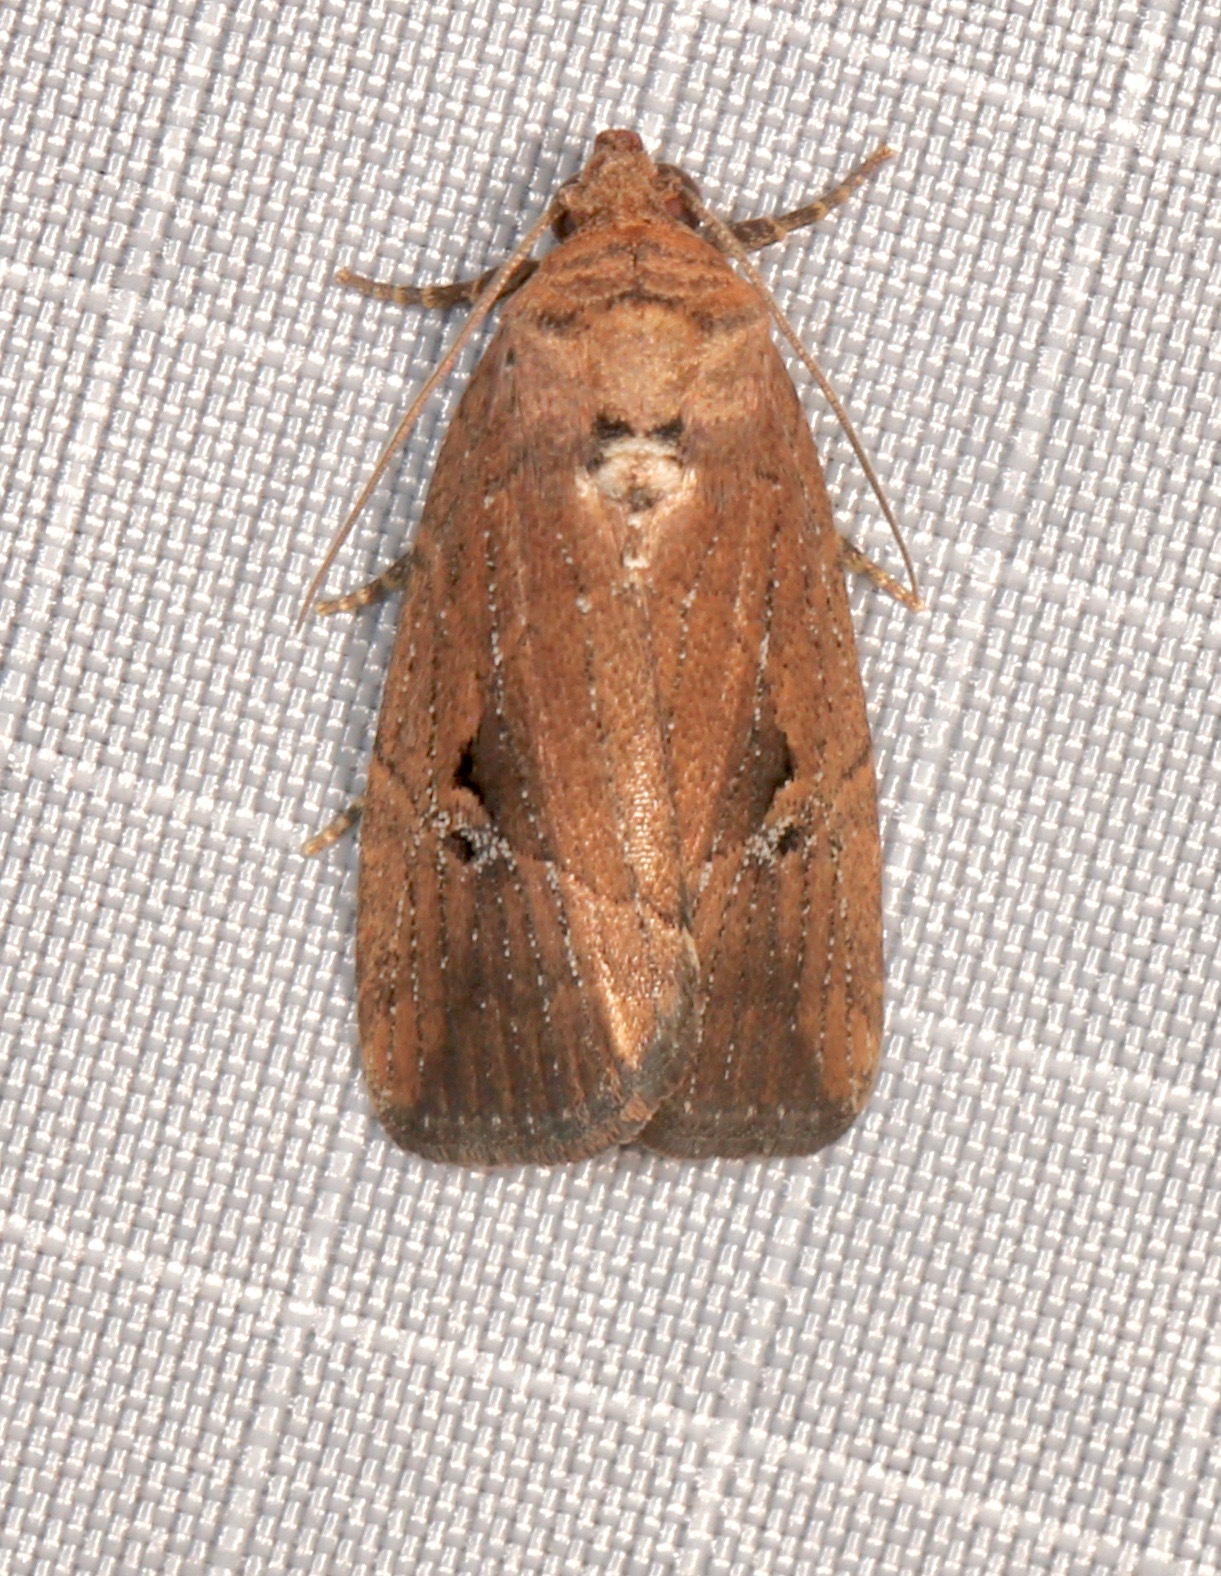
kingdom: Animalia
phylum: Arthropoda
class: Insecta
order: Lepidoptera
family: Noctuidae
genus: Elaphria
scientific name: Elaphria nucicolora
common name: Sugarcane midget moth
